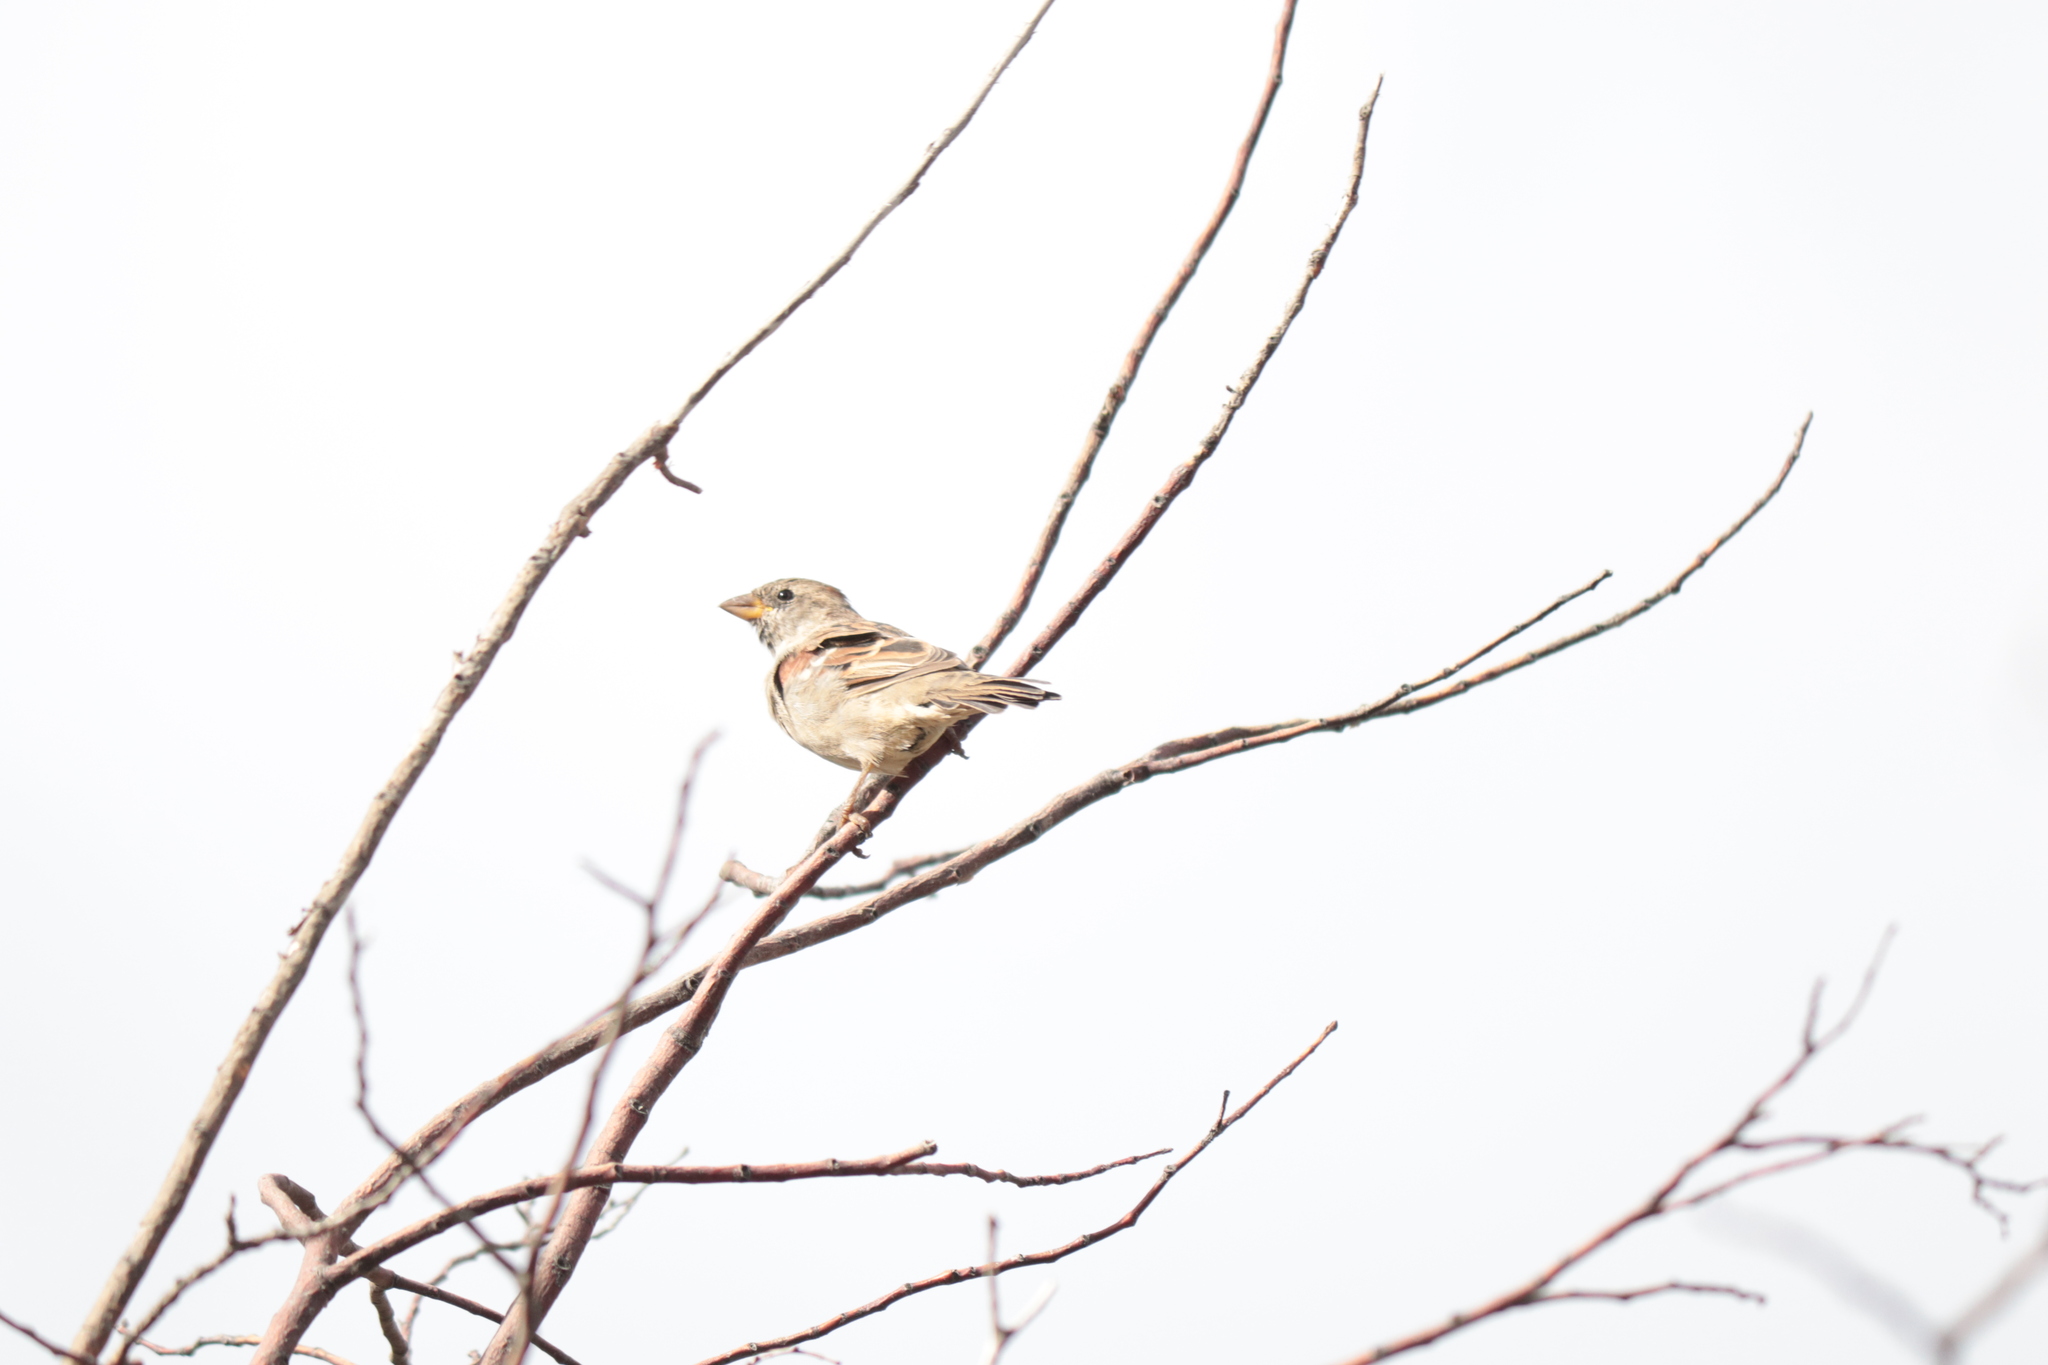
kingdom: Animalia
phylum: Chordata
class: Aves
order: Passeriformes
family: Passeridae
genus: Passer
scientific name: Passer domesticus
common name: House sparrow
